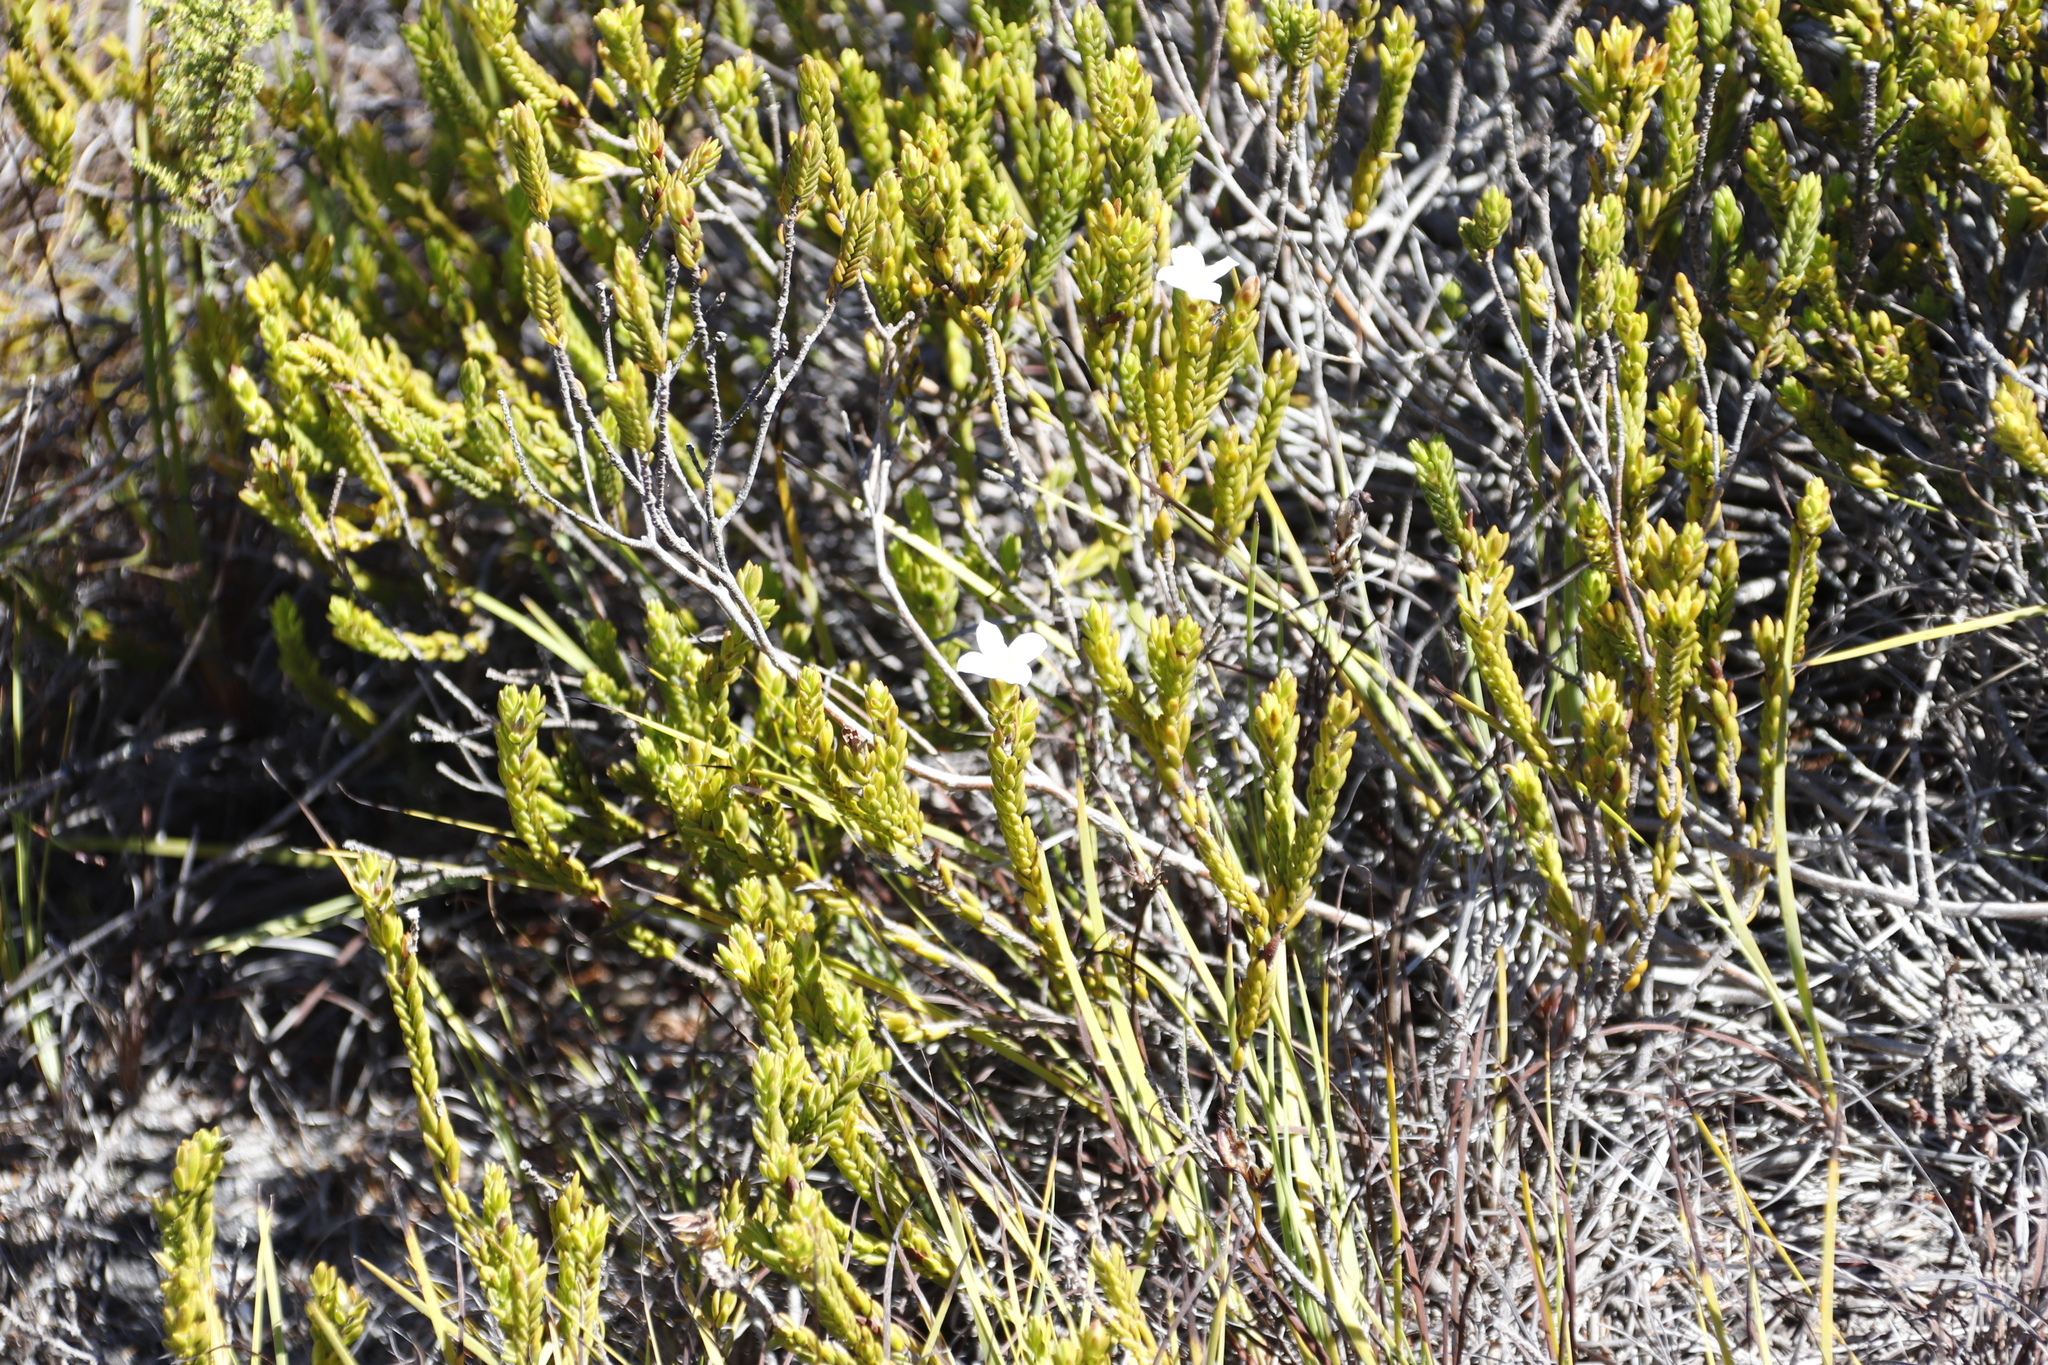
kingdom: Plantae
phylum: Tracheophyta
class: Magnoliopsida
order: Malvales
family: Thymelaeaceae
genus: Lachnaea
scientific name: Lachnaea grandiflora
